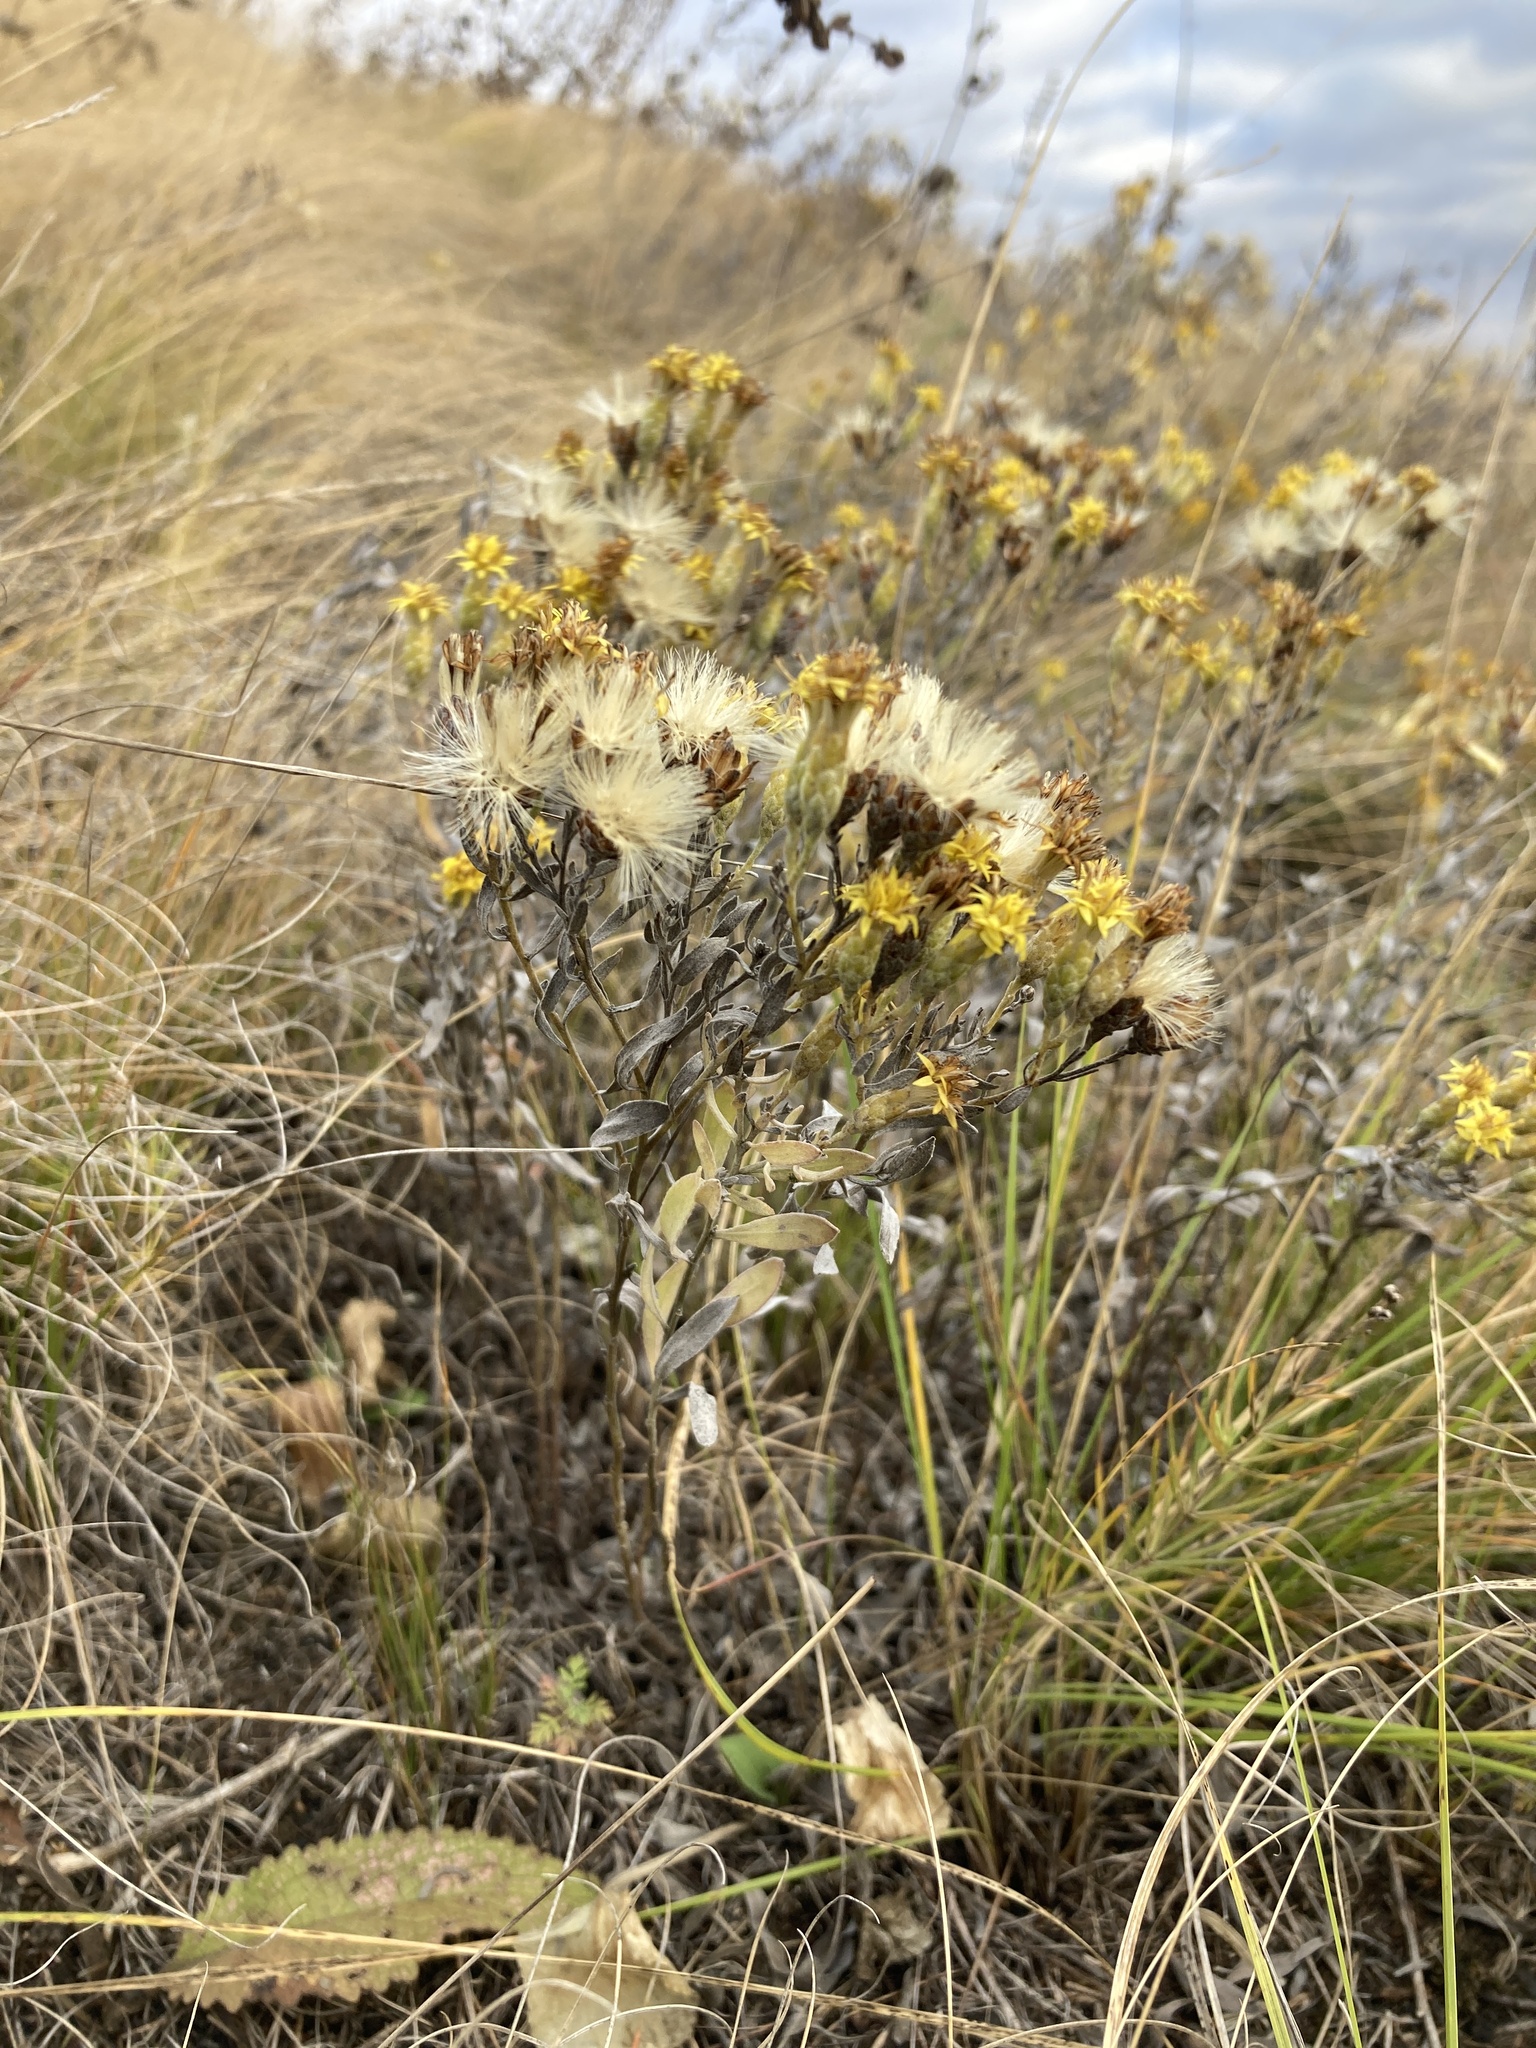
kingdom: Plantae
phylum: Tracheophyta
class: Magnoliopsida
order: Asterales
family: Asteraceae
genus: Galatella
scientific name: Galatella villosa
